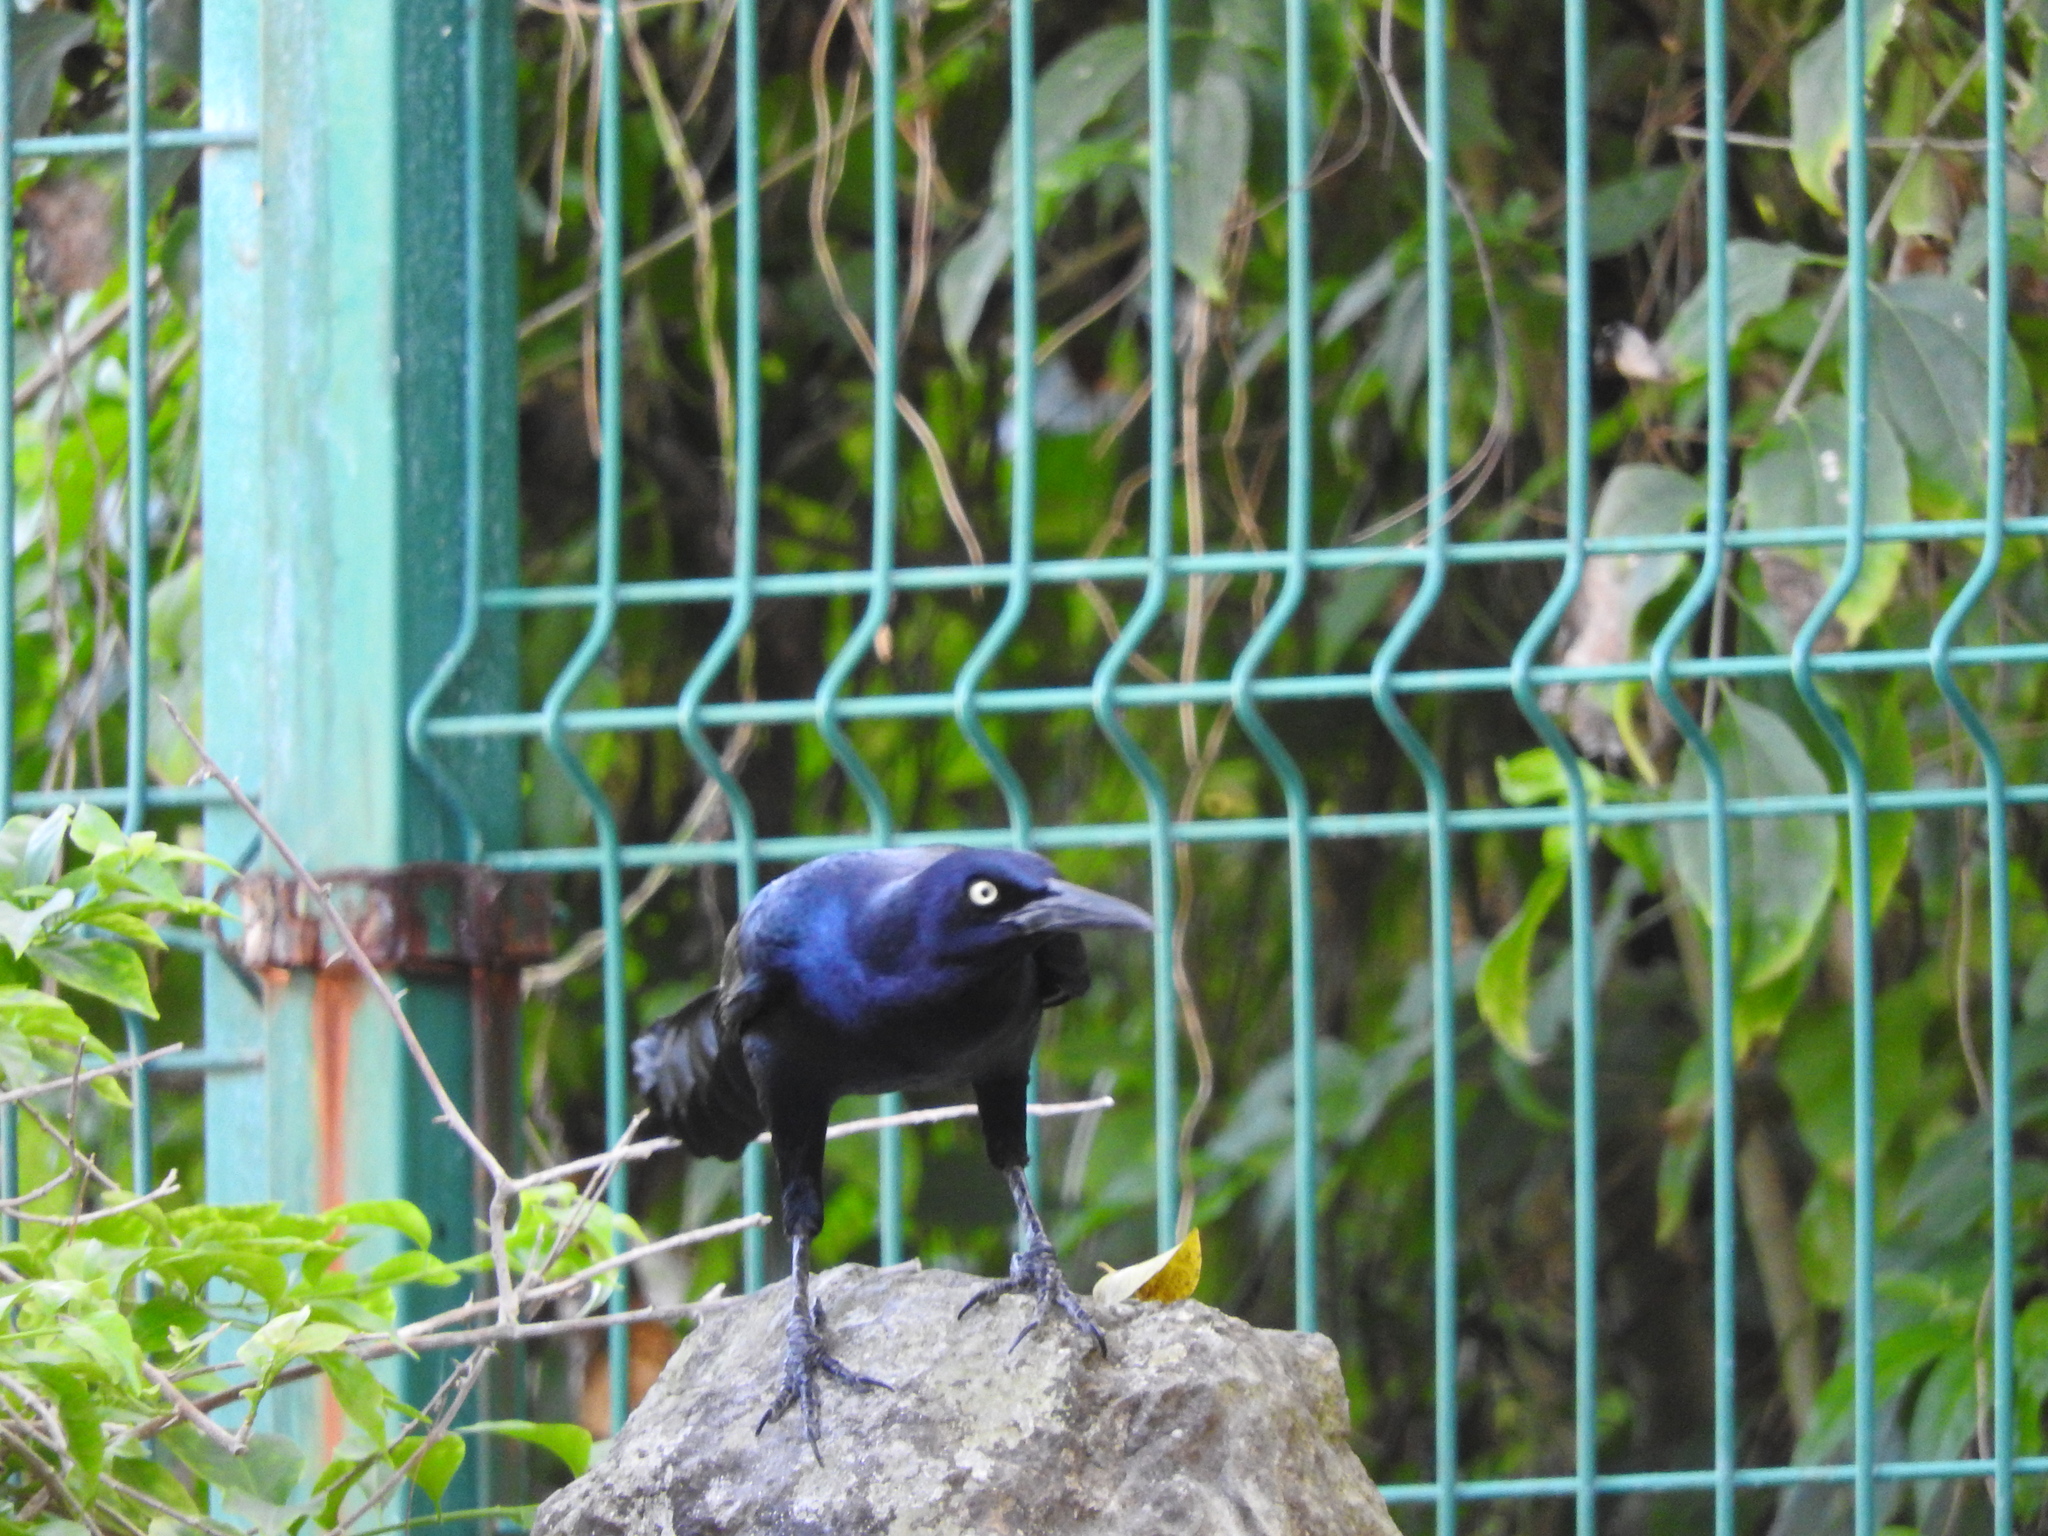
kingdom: Animalia
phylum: Chordata
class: Aves
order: Passeriformes
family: Icteridae
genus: Quiscalus
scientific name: Quiscalus mexicanus
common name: Great-tailed grackle
